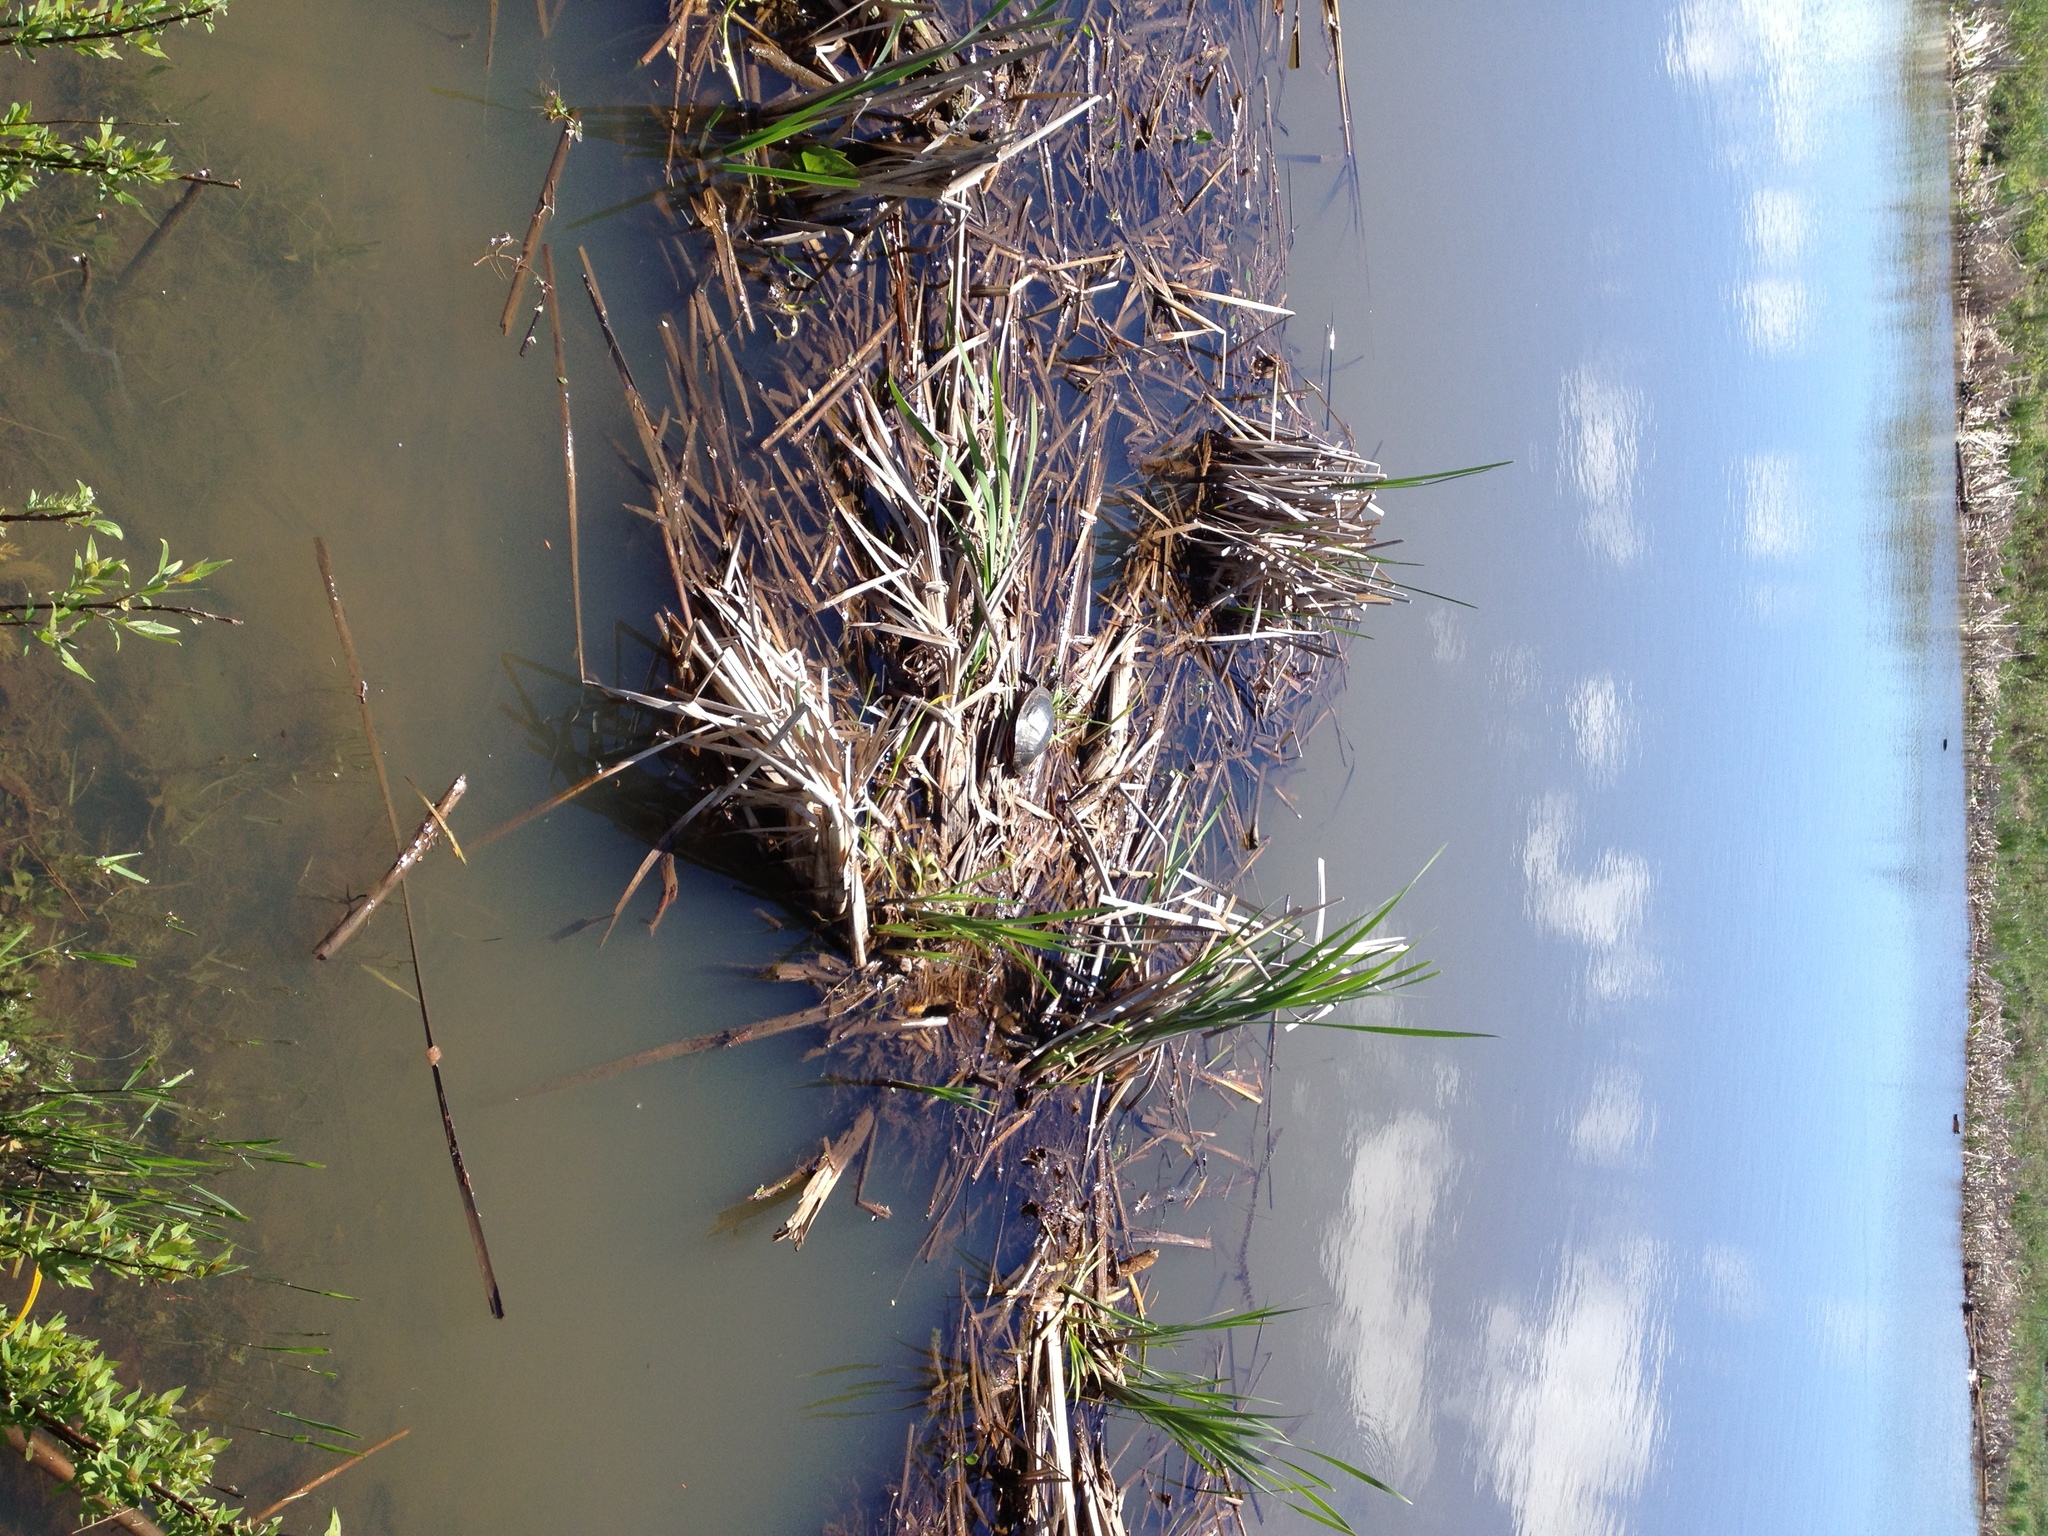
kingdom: Animalia
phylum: Chordata
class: Testudines
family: Emydidae
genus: Chrysemys
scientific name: Chrysemys picta
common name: Painted turtle
